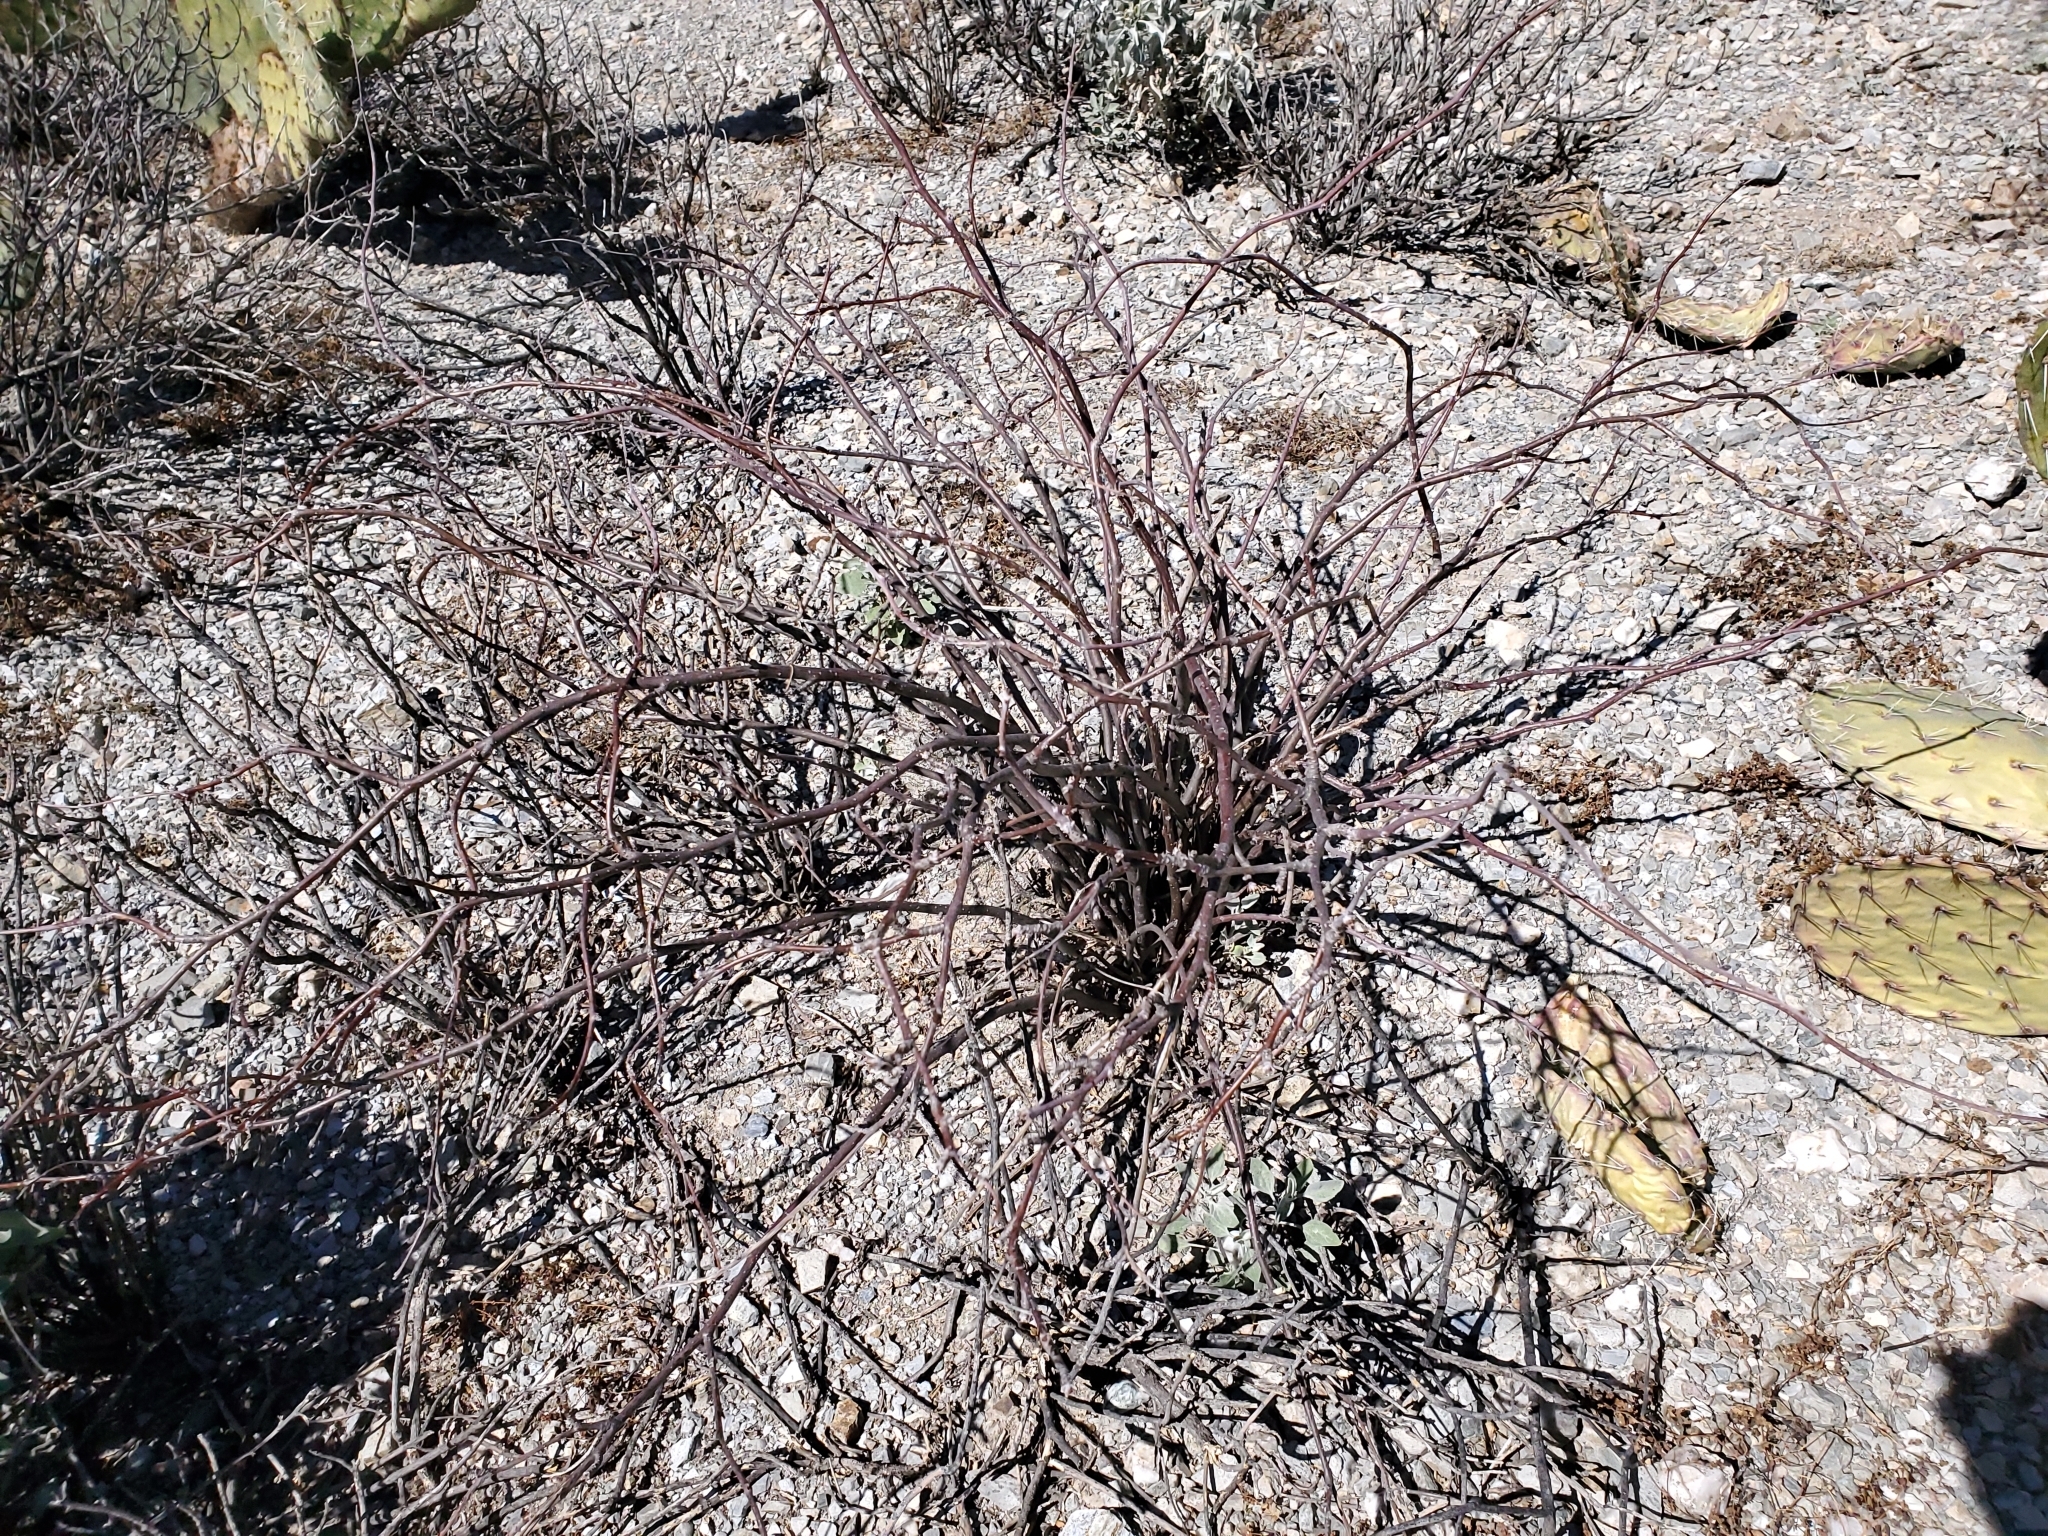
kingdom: Plantae
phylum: Tracheophyta
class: Magnoliopsida
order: Malpighiales
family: Euphorbiaceae
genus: Jatropha
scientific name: Jatropha cardiophylla
